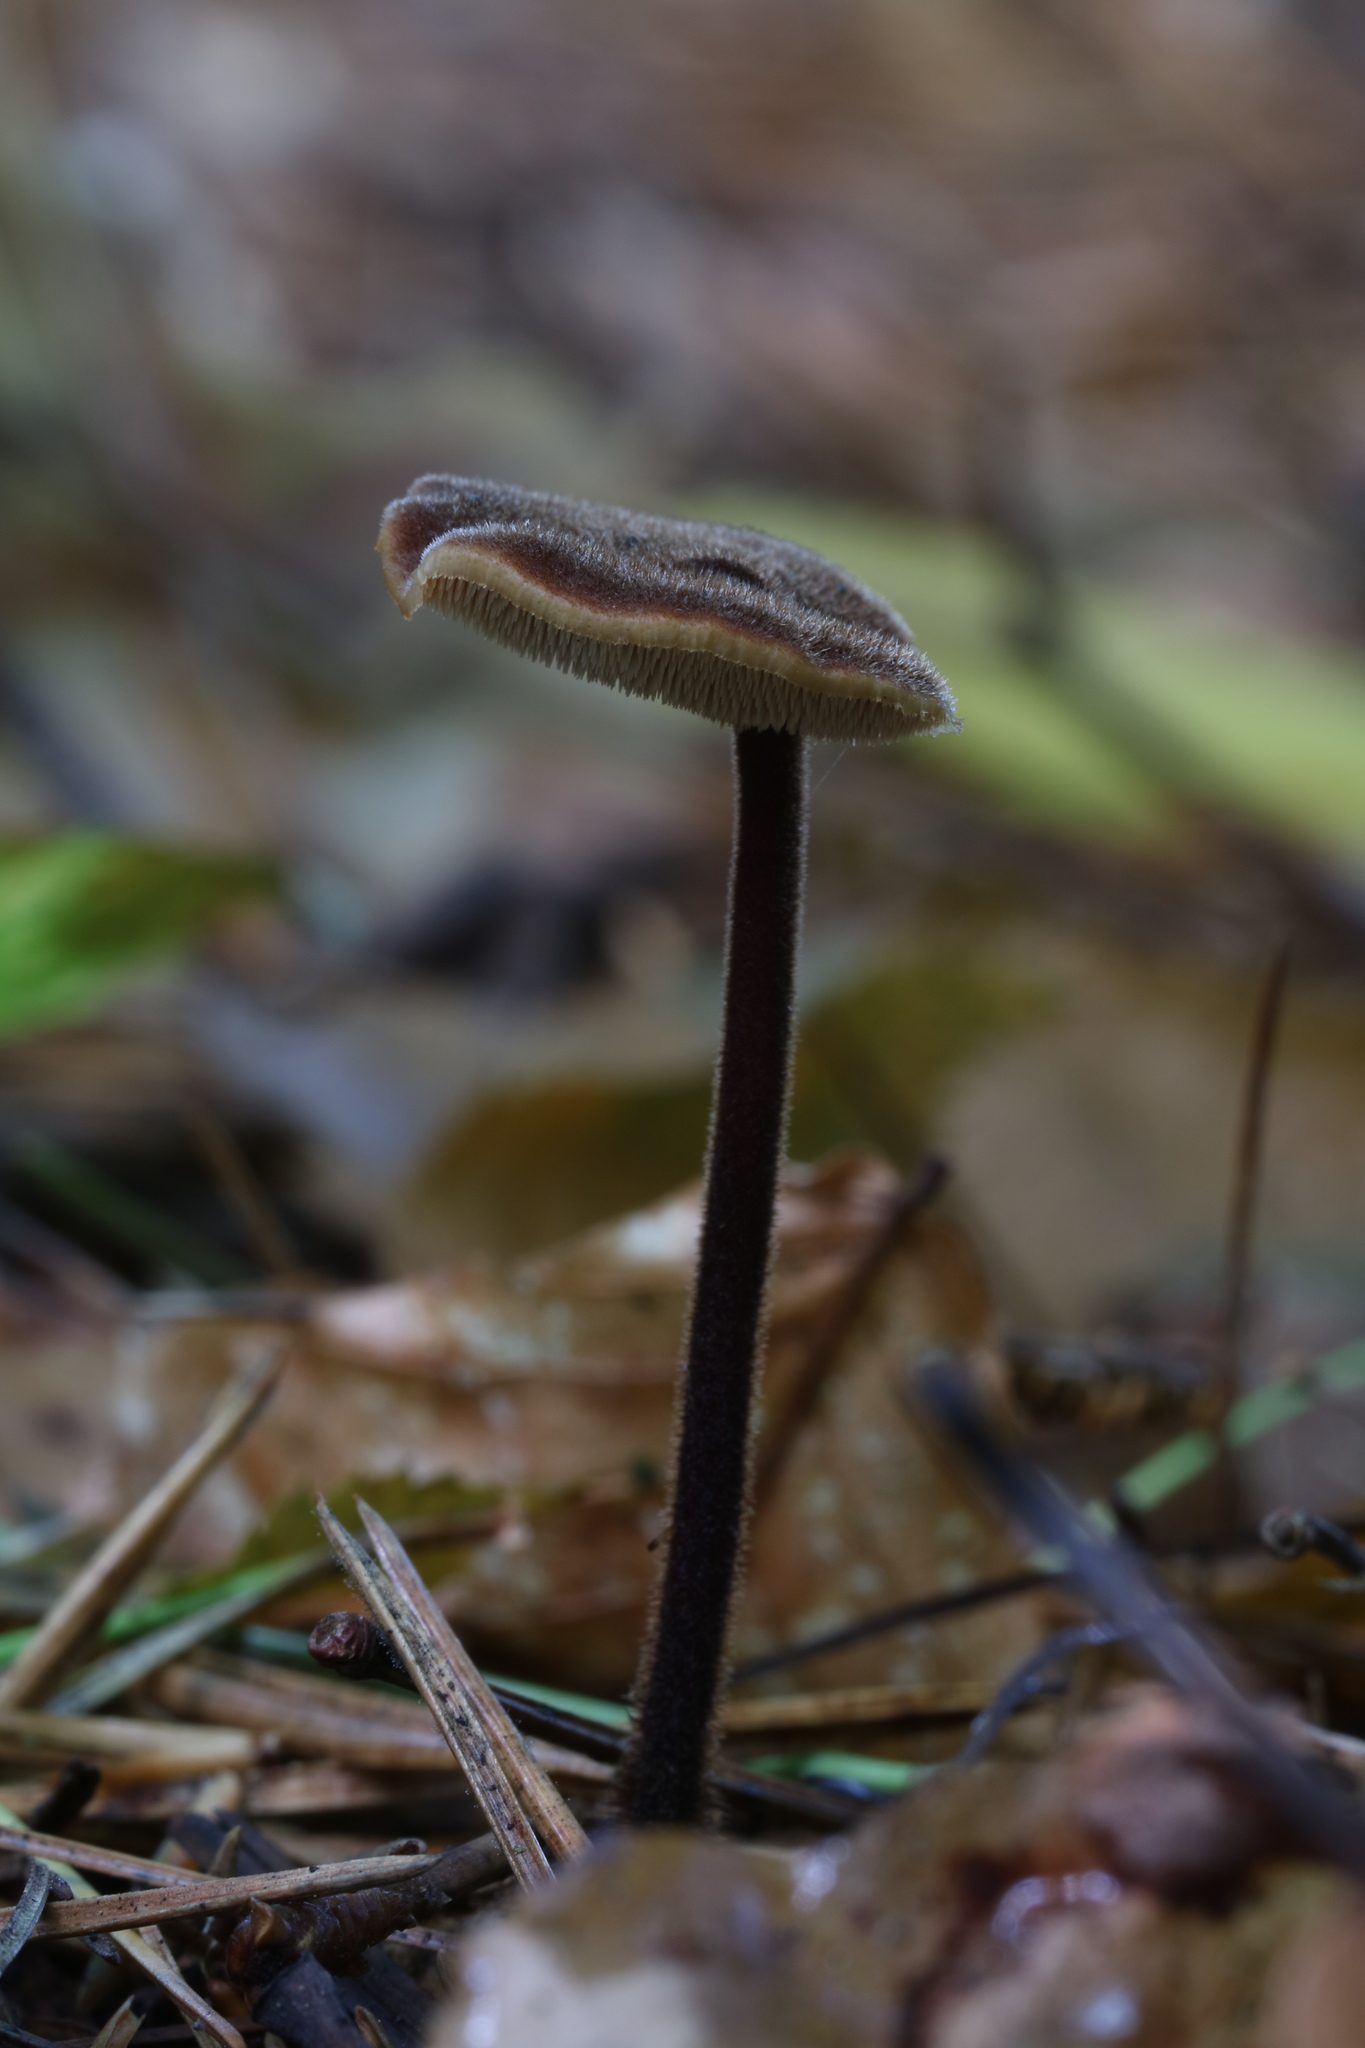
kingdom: Fungi
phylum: Basidiomycota
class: Agaricomycetes
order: Russulales
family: Auriscalpiaceae
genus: Auriscalpium
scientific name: Auriscalpium vulgare
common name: Earpick fungus
